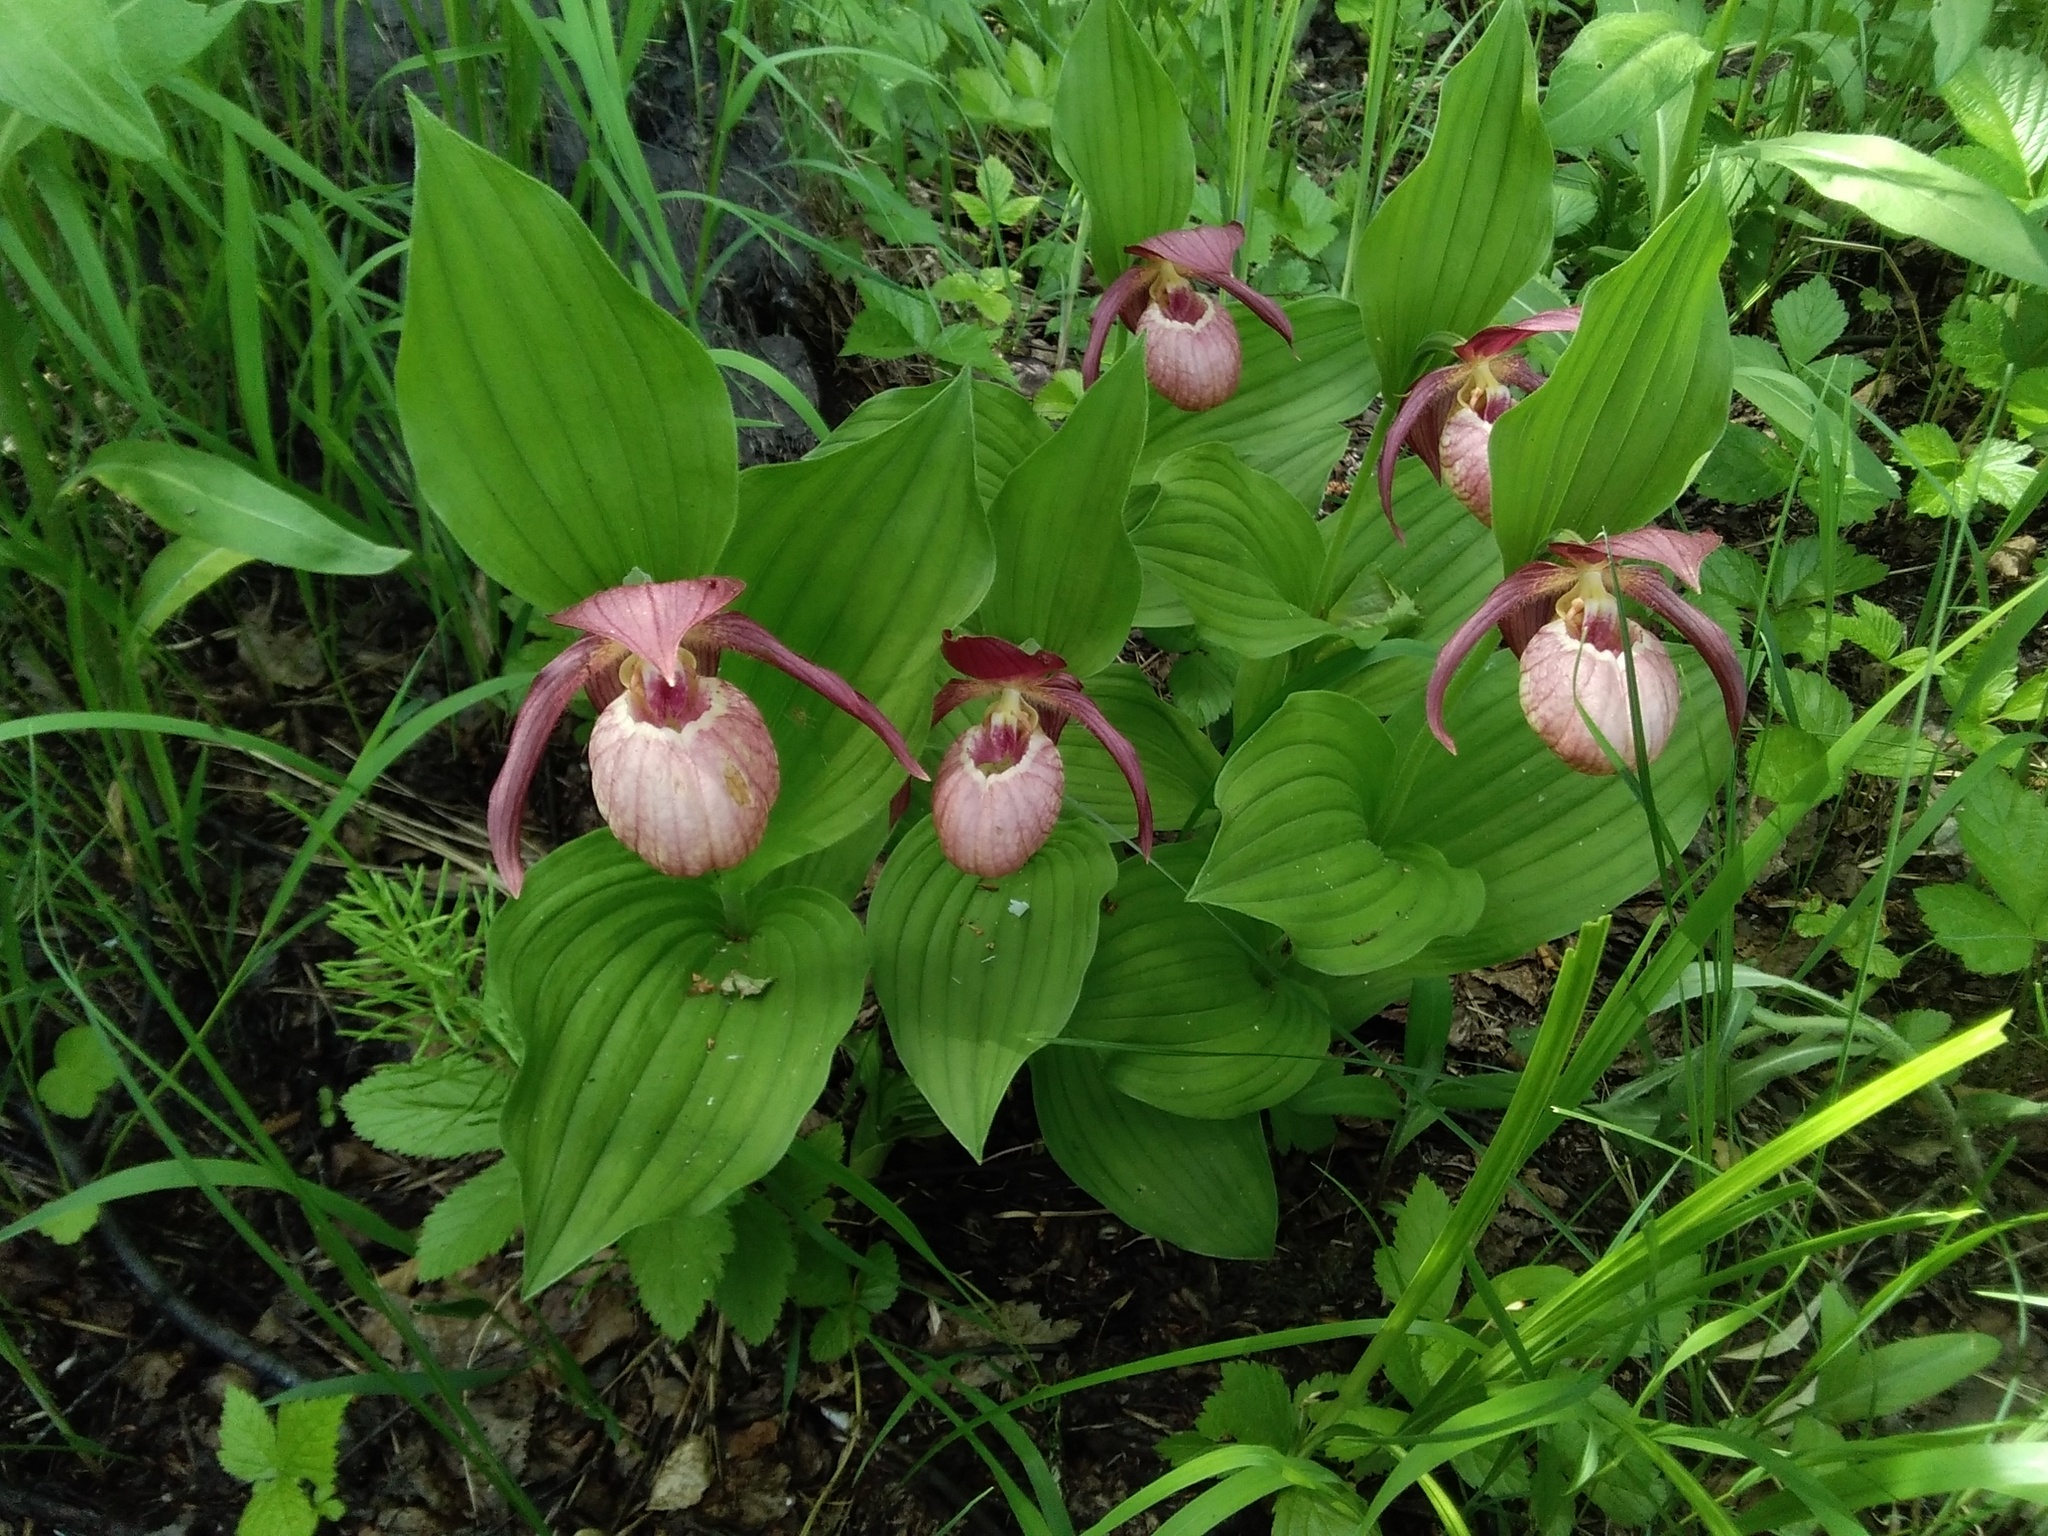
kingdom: Plantae
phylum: Tracheophyta
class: Liliopsida
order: Asparagales
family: Orchidaceae
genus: Cypripedium
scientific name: Cypripedium ventricosum
